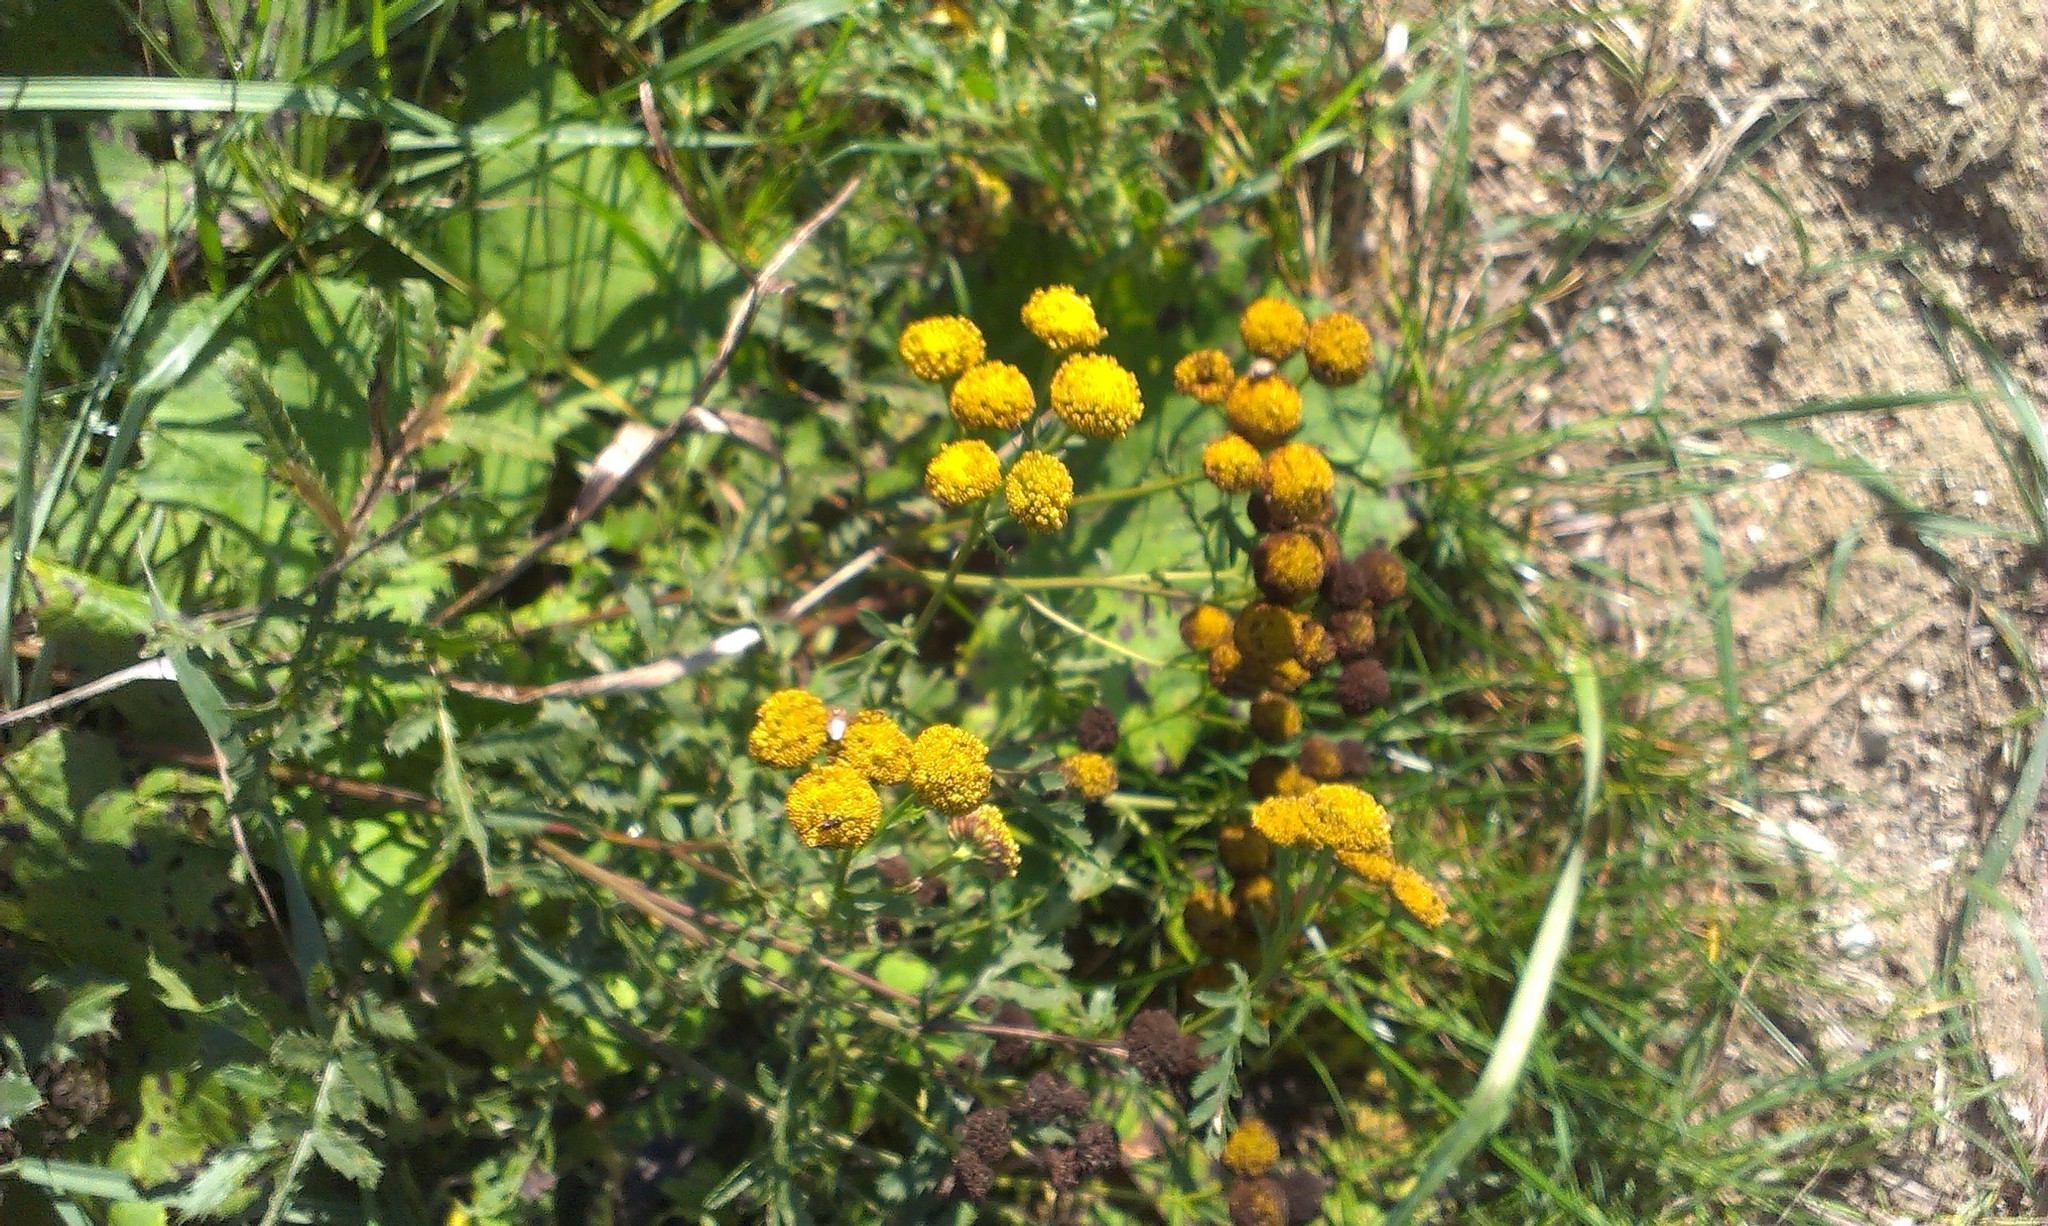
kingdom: Plantae
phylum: Tracheophyta
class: Magnoliopsida
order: Asterales
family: Asteraceae
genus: Tanacetum
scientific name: Tanacetum vulgare
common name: Common tansy
